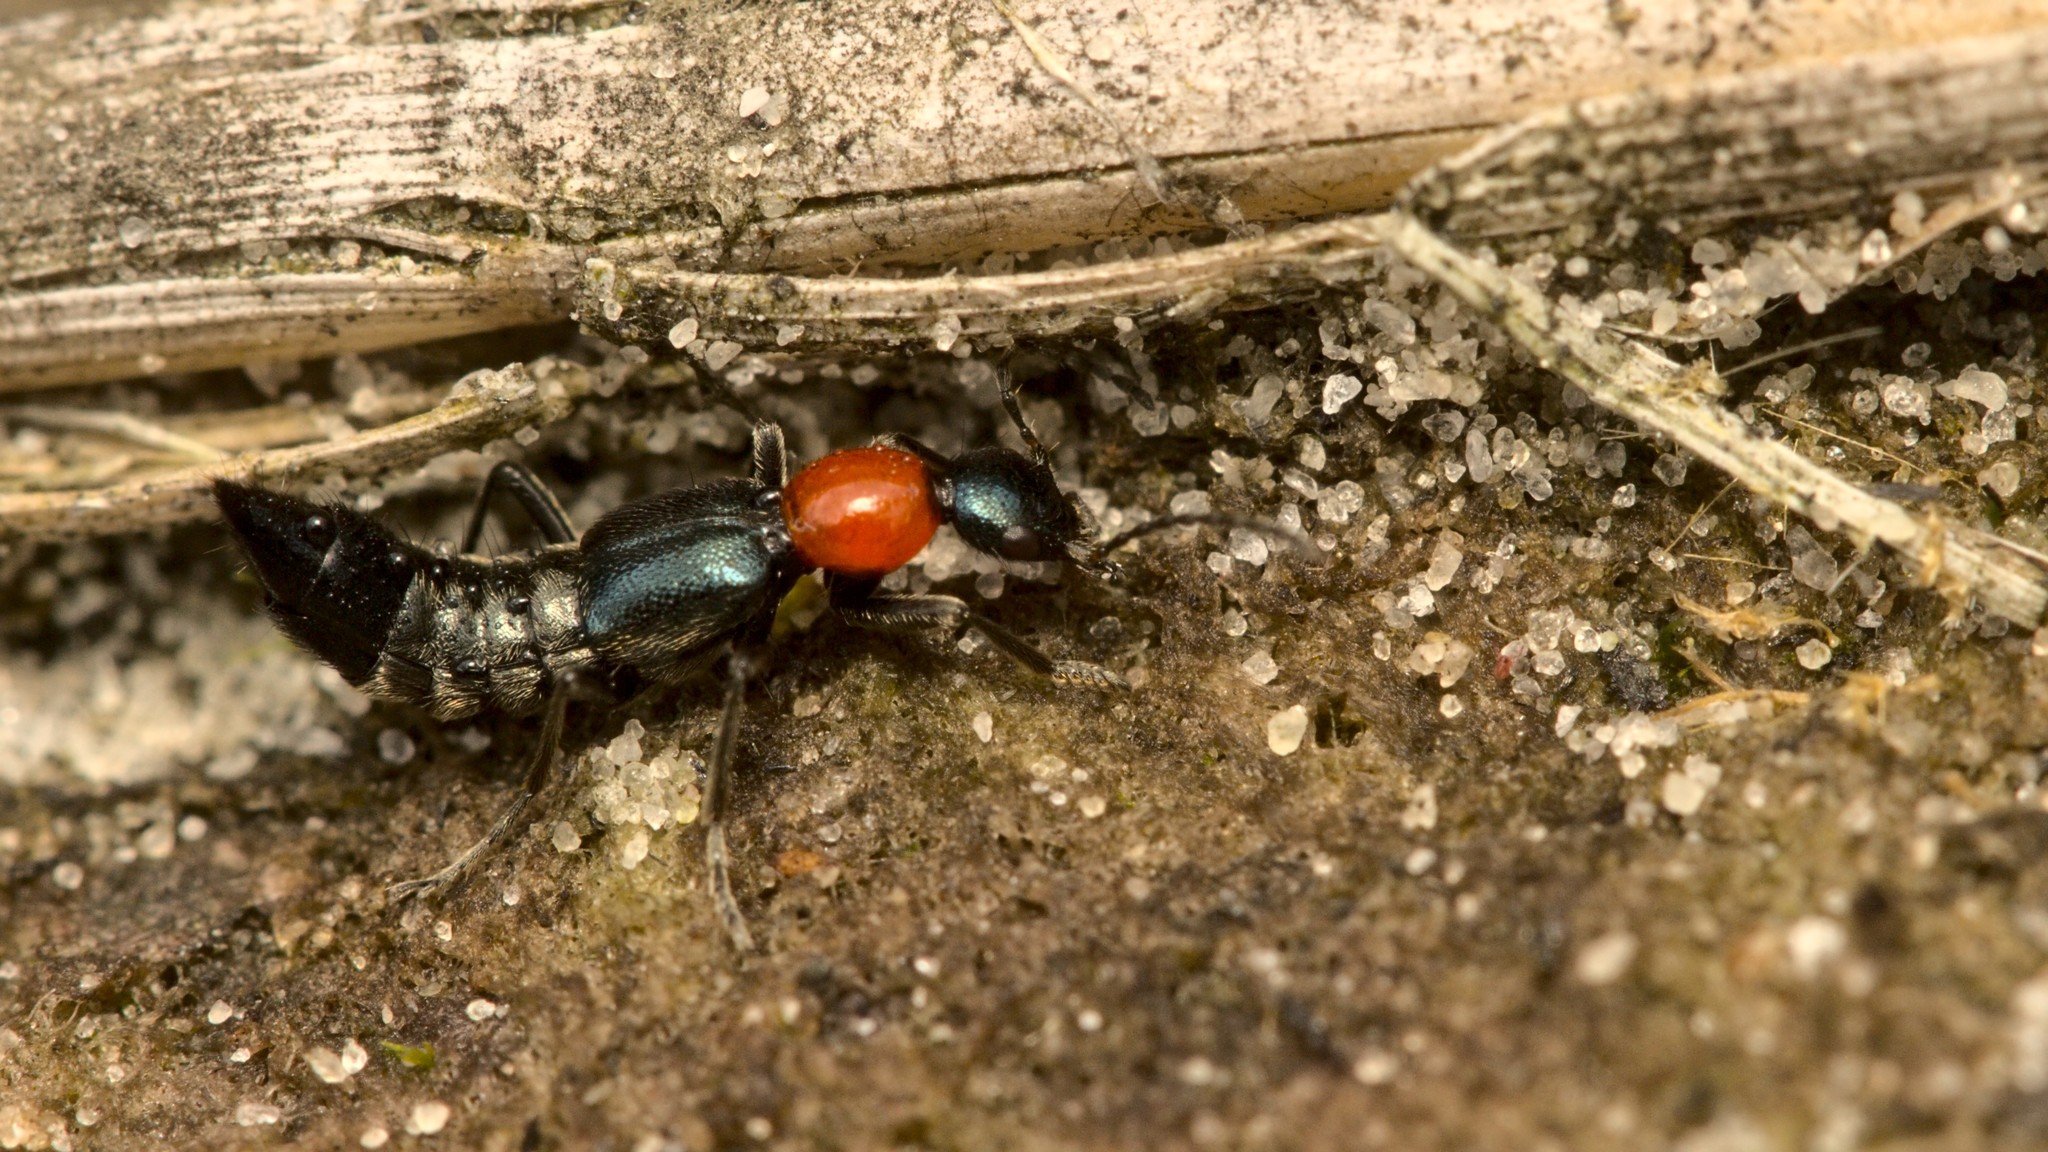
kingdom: Animalia
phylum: Arthropoda
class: Insecta
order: Coleoptera
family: Staphylinidae
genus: Paederidus
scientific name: Paederidus ruficollis
